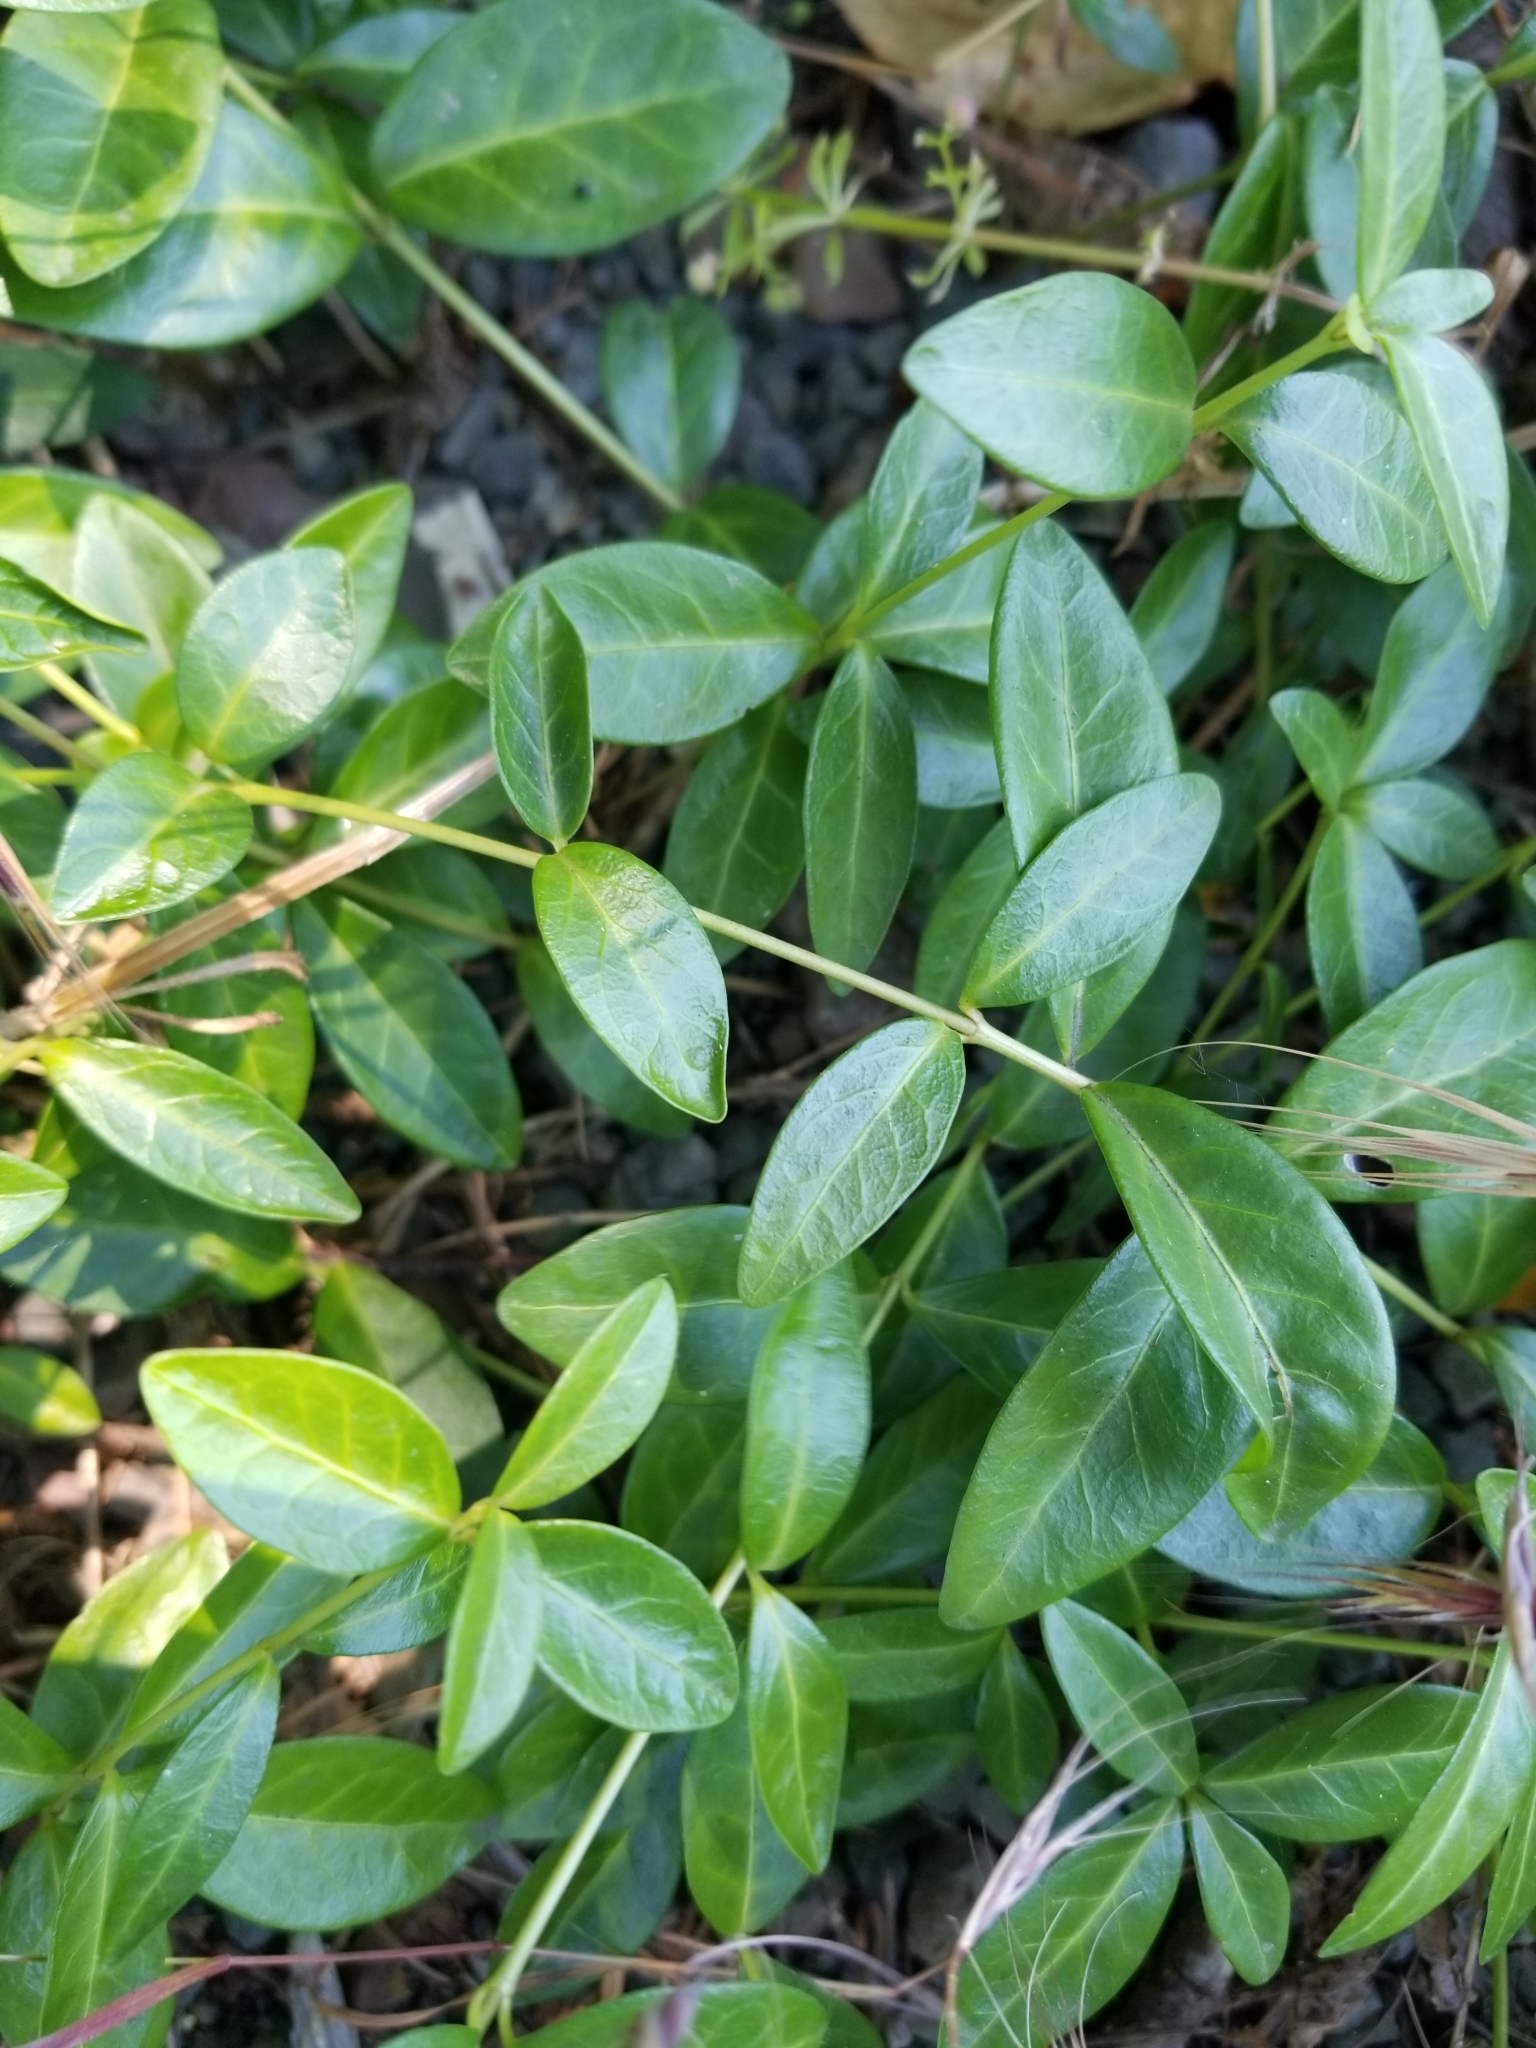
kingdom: Plantae
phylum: Tracheophyta
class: Magnoliopsida
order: Gentianales
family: Apocynaceae
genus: Vinca
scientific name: Vinca minor
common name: Lesser periwinkle
